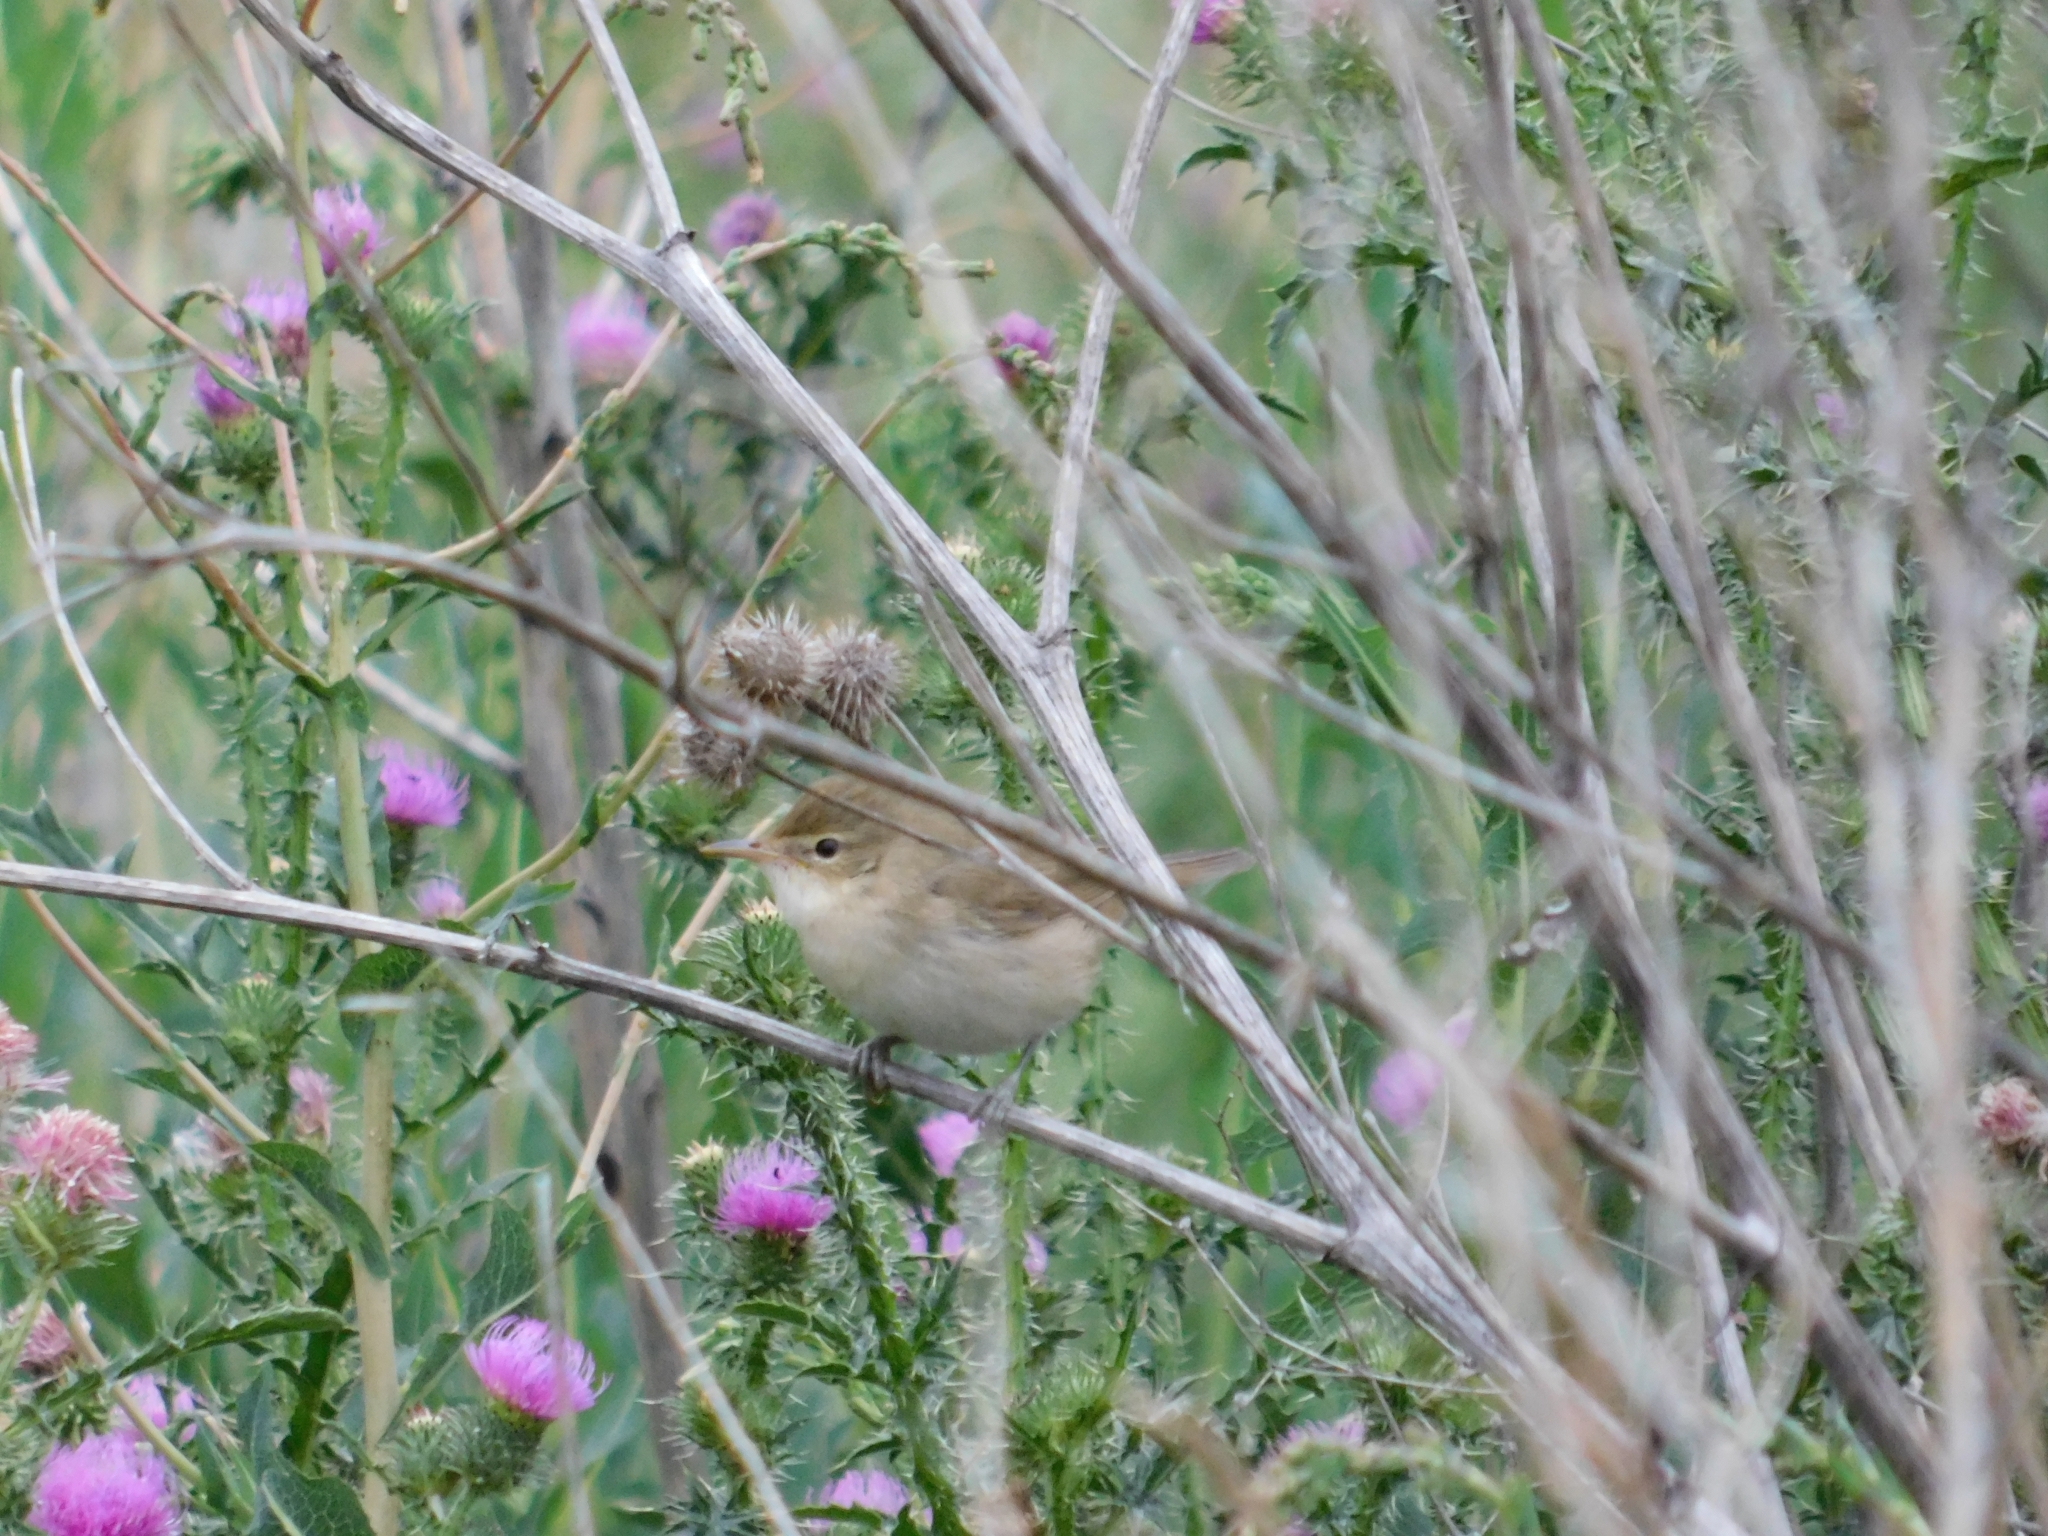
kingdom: Animalia
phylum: Chordata
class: Aves
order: Passeriformes
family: Acrocephalidae
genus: Acrocephalus
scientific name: Acrocephalus dumetorum
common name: Blyth's reed warbler
